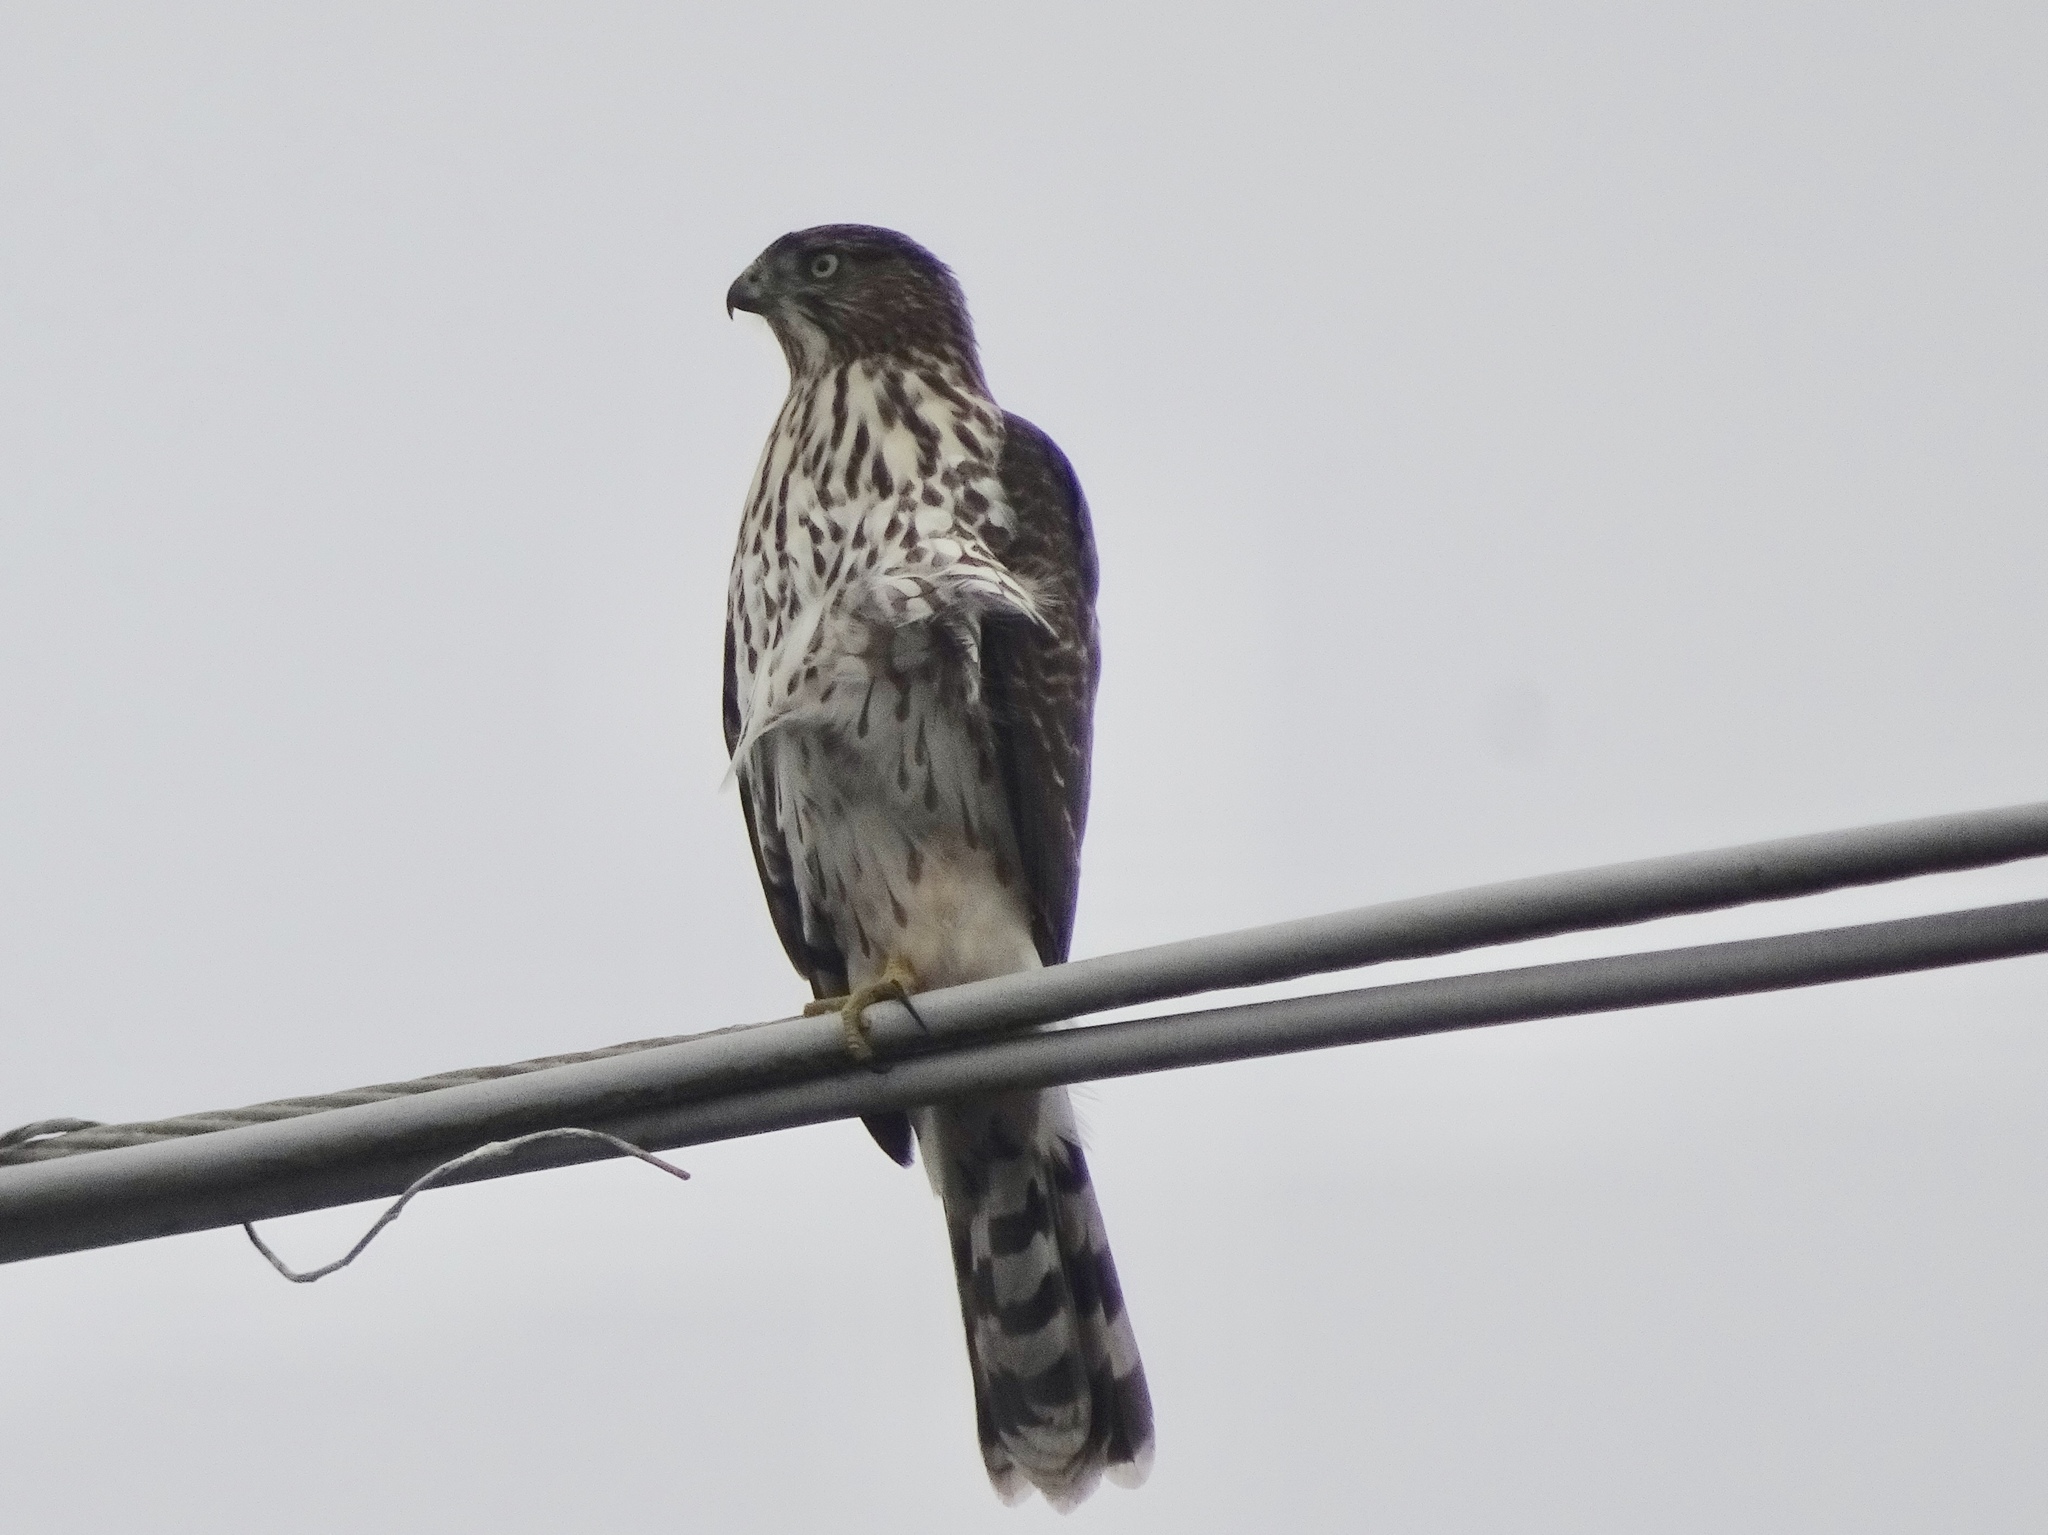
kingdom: Animalia
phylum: Chordata
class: Aves
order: Accipitriformes
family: Accipitridae
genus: Accipiter
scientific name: Accipiter cooperii
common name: Cooper's hawk
